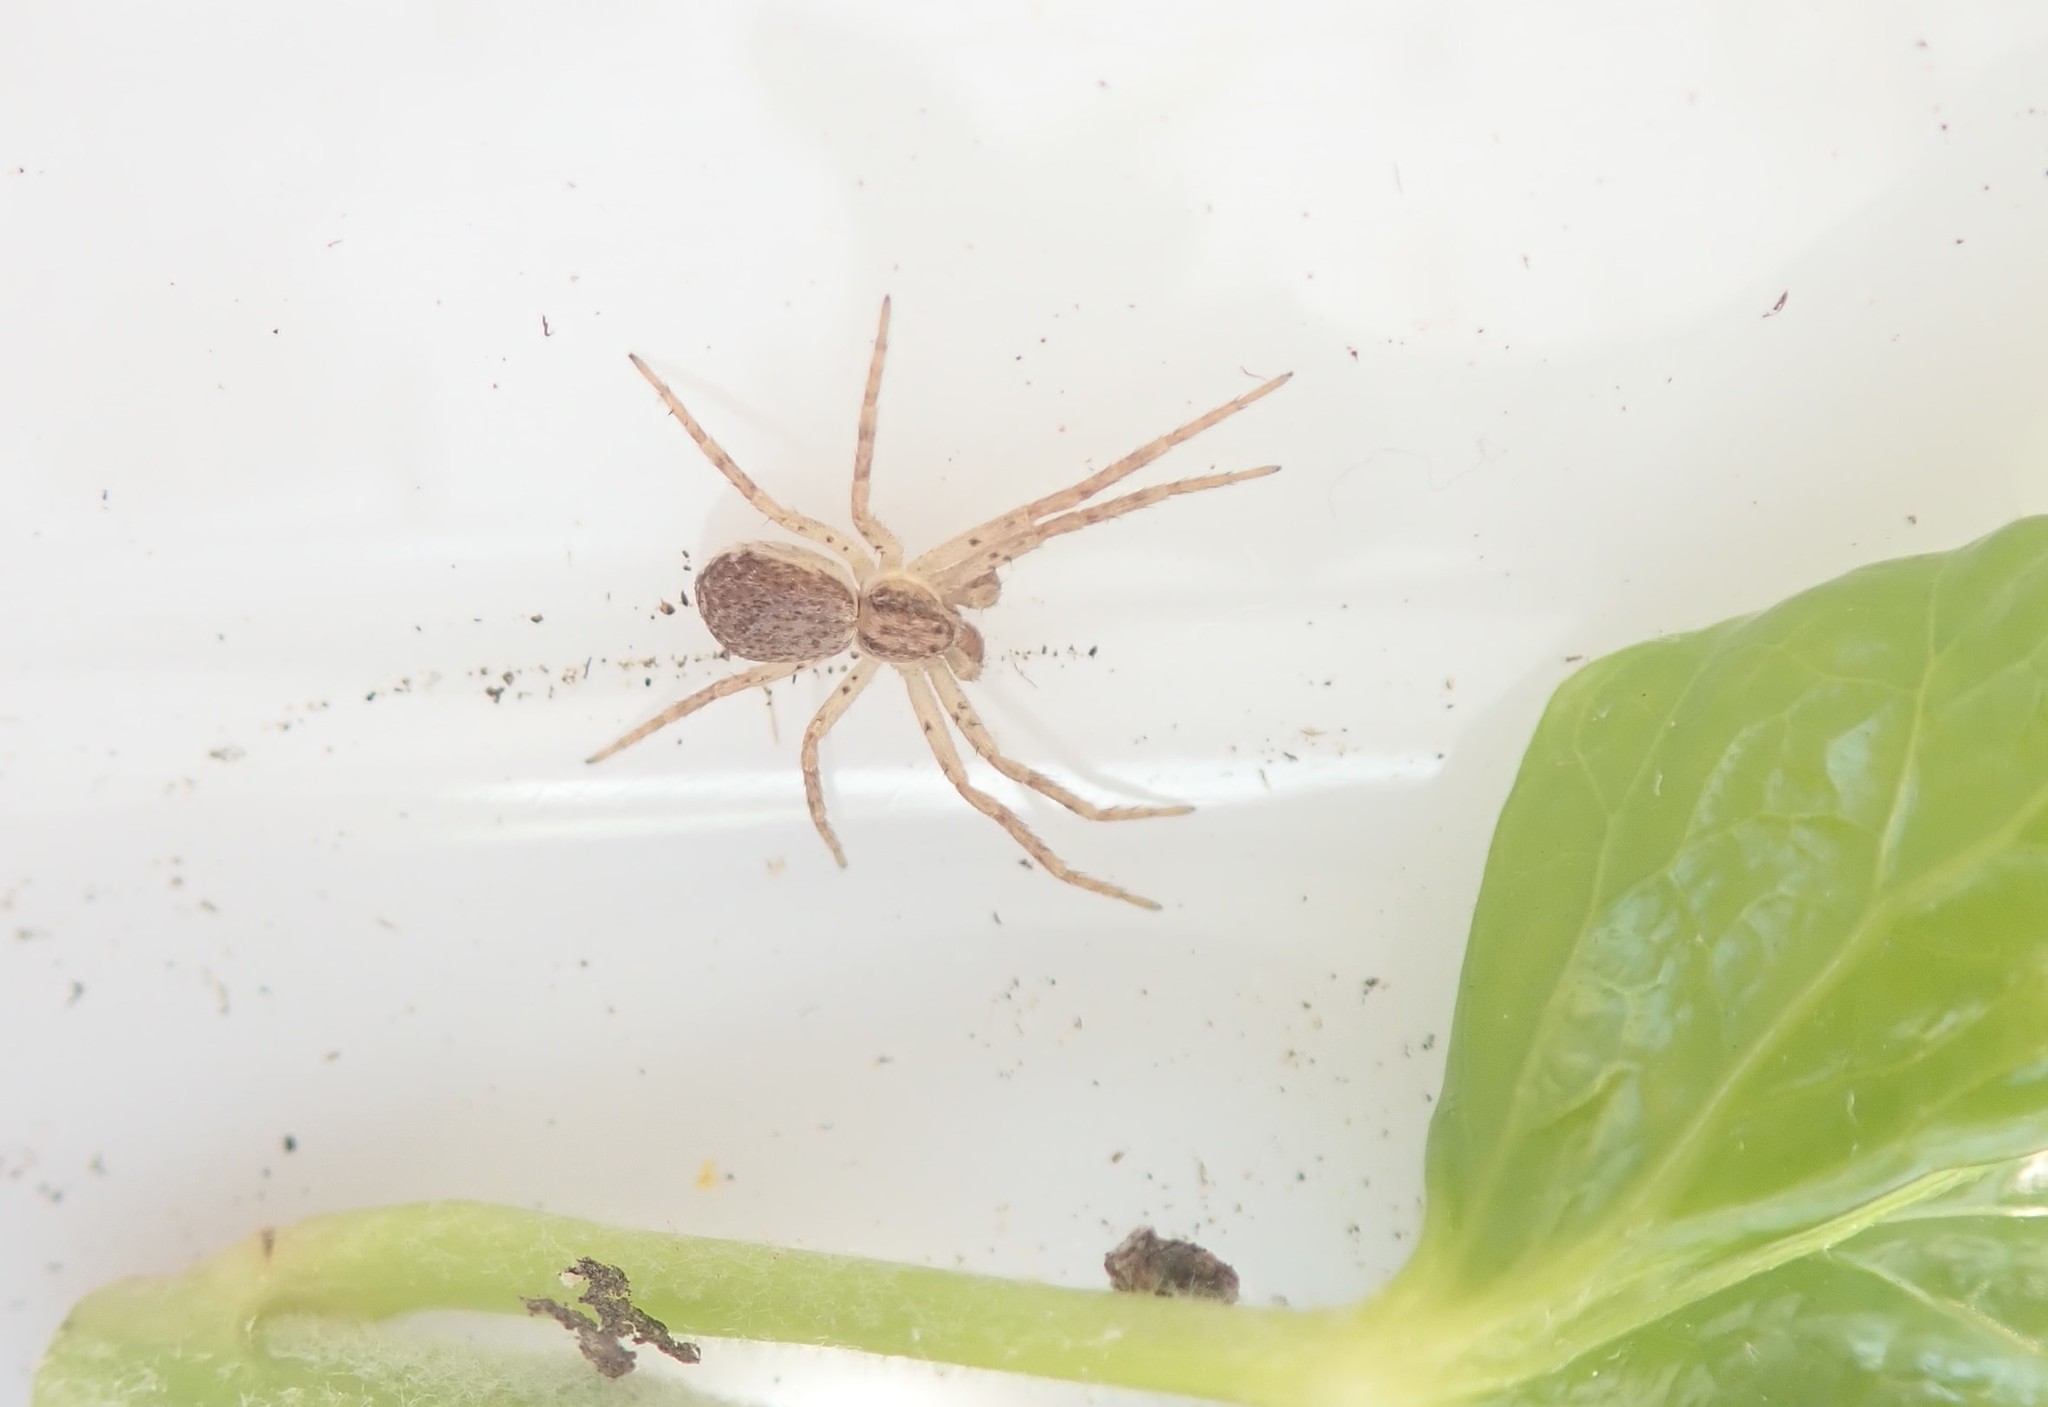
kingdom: Animalia
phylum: Arthropoda
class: Arachnida
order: Araneae
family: Philodromidae
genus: Philodromus
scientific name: Philodromus dispar
